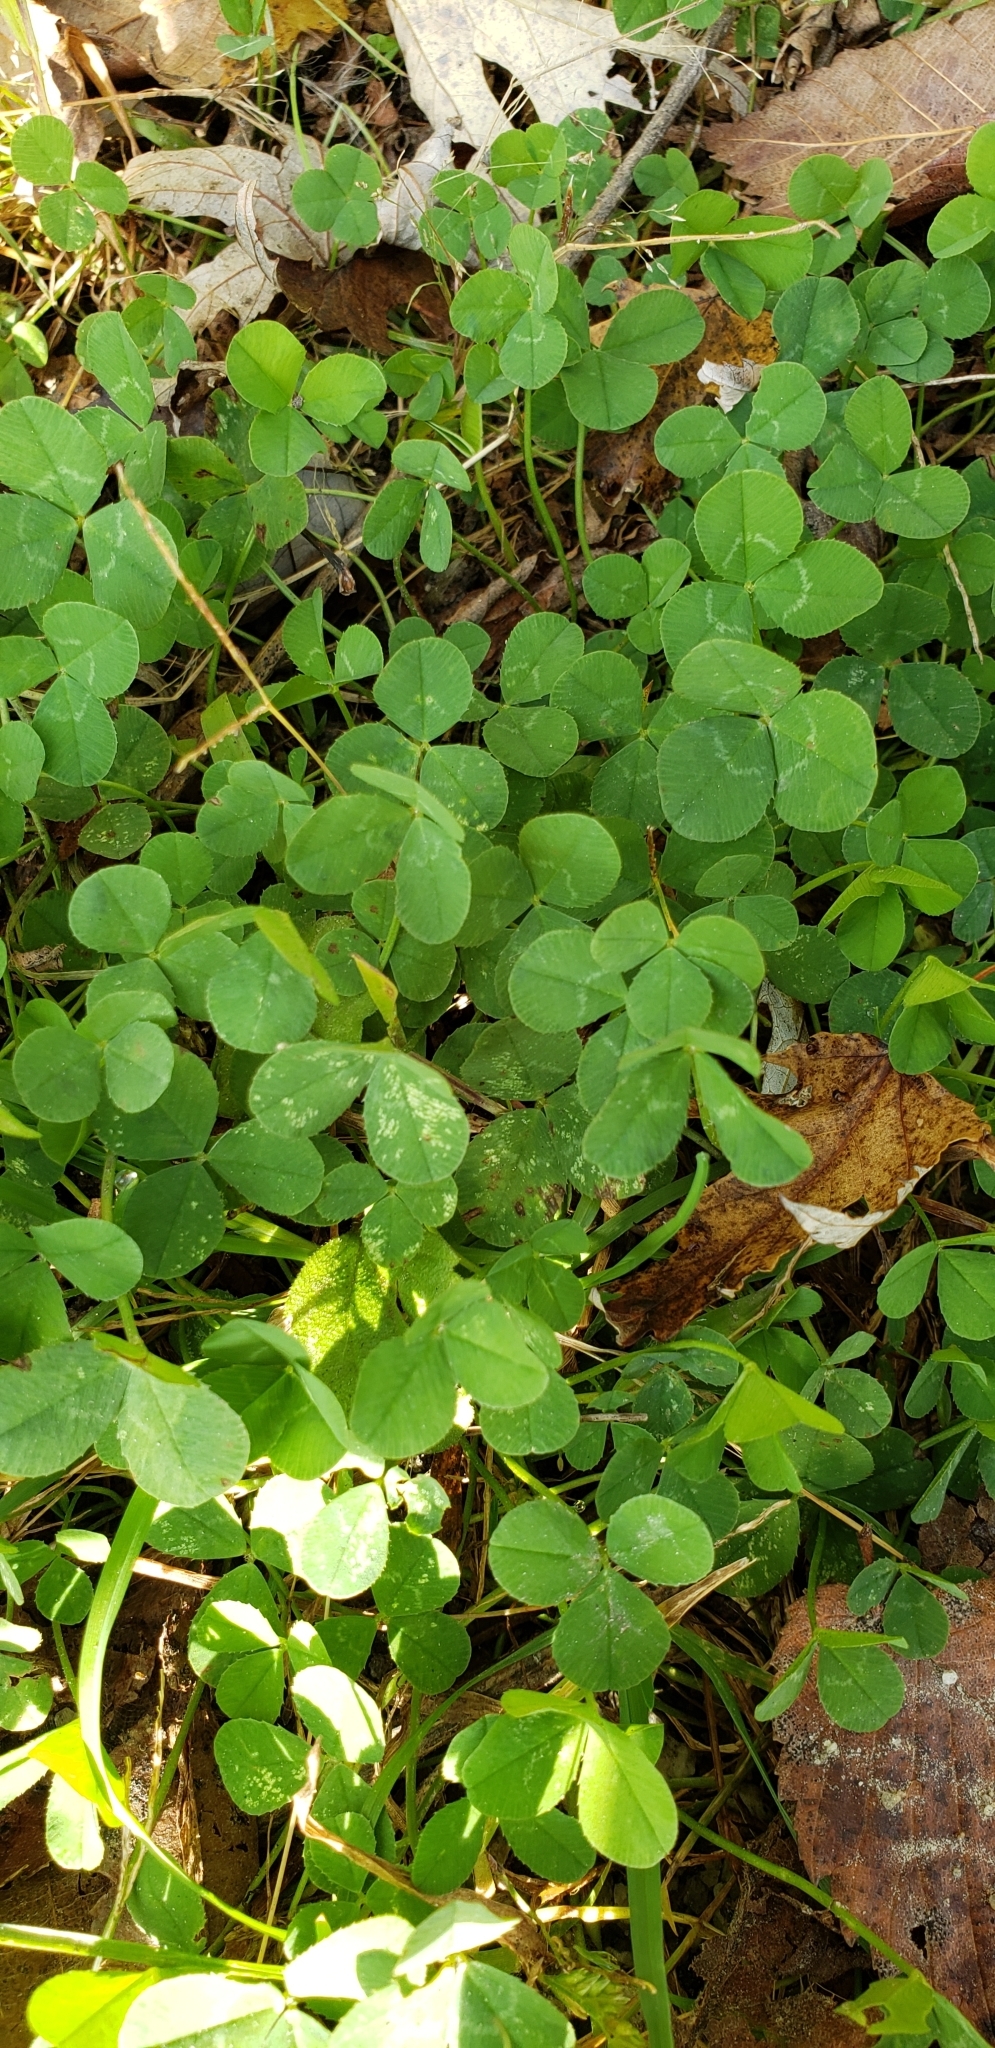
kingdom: Plantae
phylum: Tracheophyta
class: Magnoliopsida
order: Fabales
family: Fabaceae
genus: Trifolium
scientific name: Trifolium repens
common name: White clover
